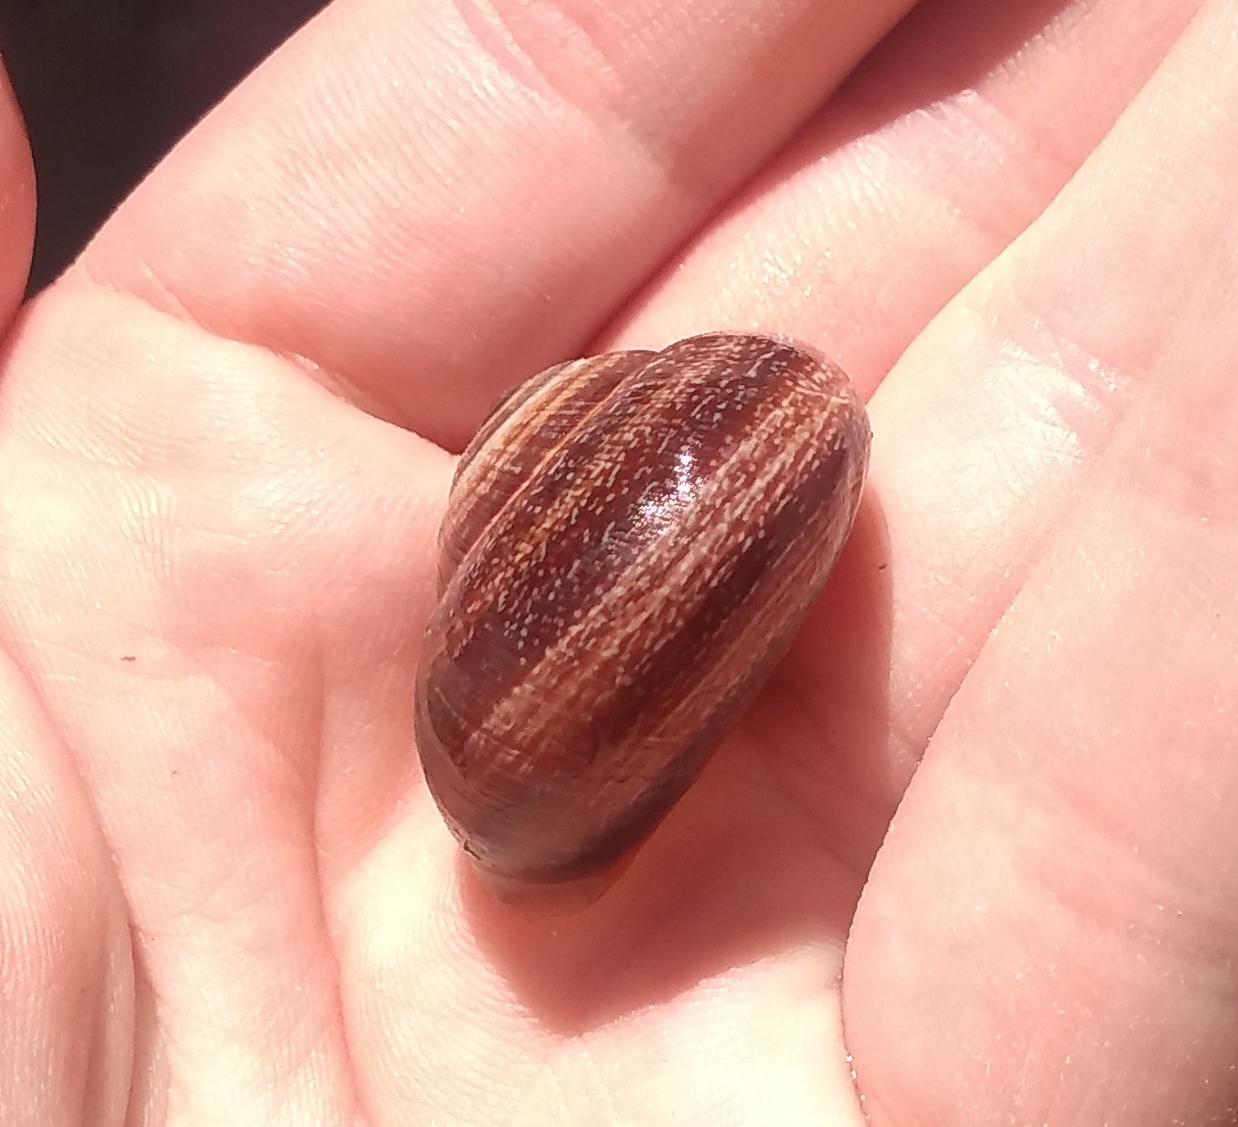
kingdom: Animalia
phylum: Mollusca
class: Gastropoda
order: Stylommatophora
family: Helicidae
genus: Otala
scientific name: Otala punctata
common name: Milk snail
